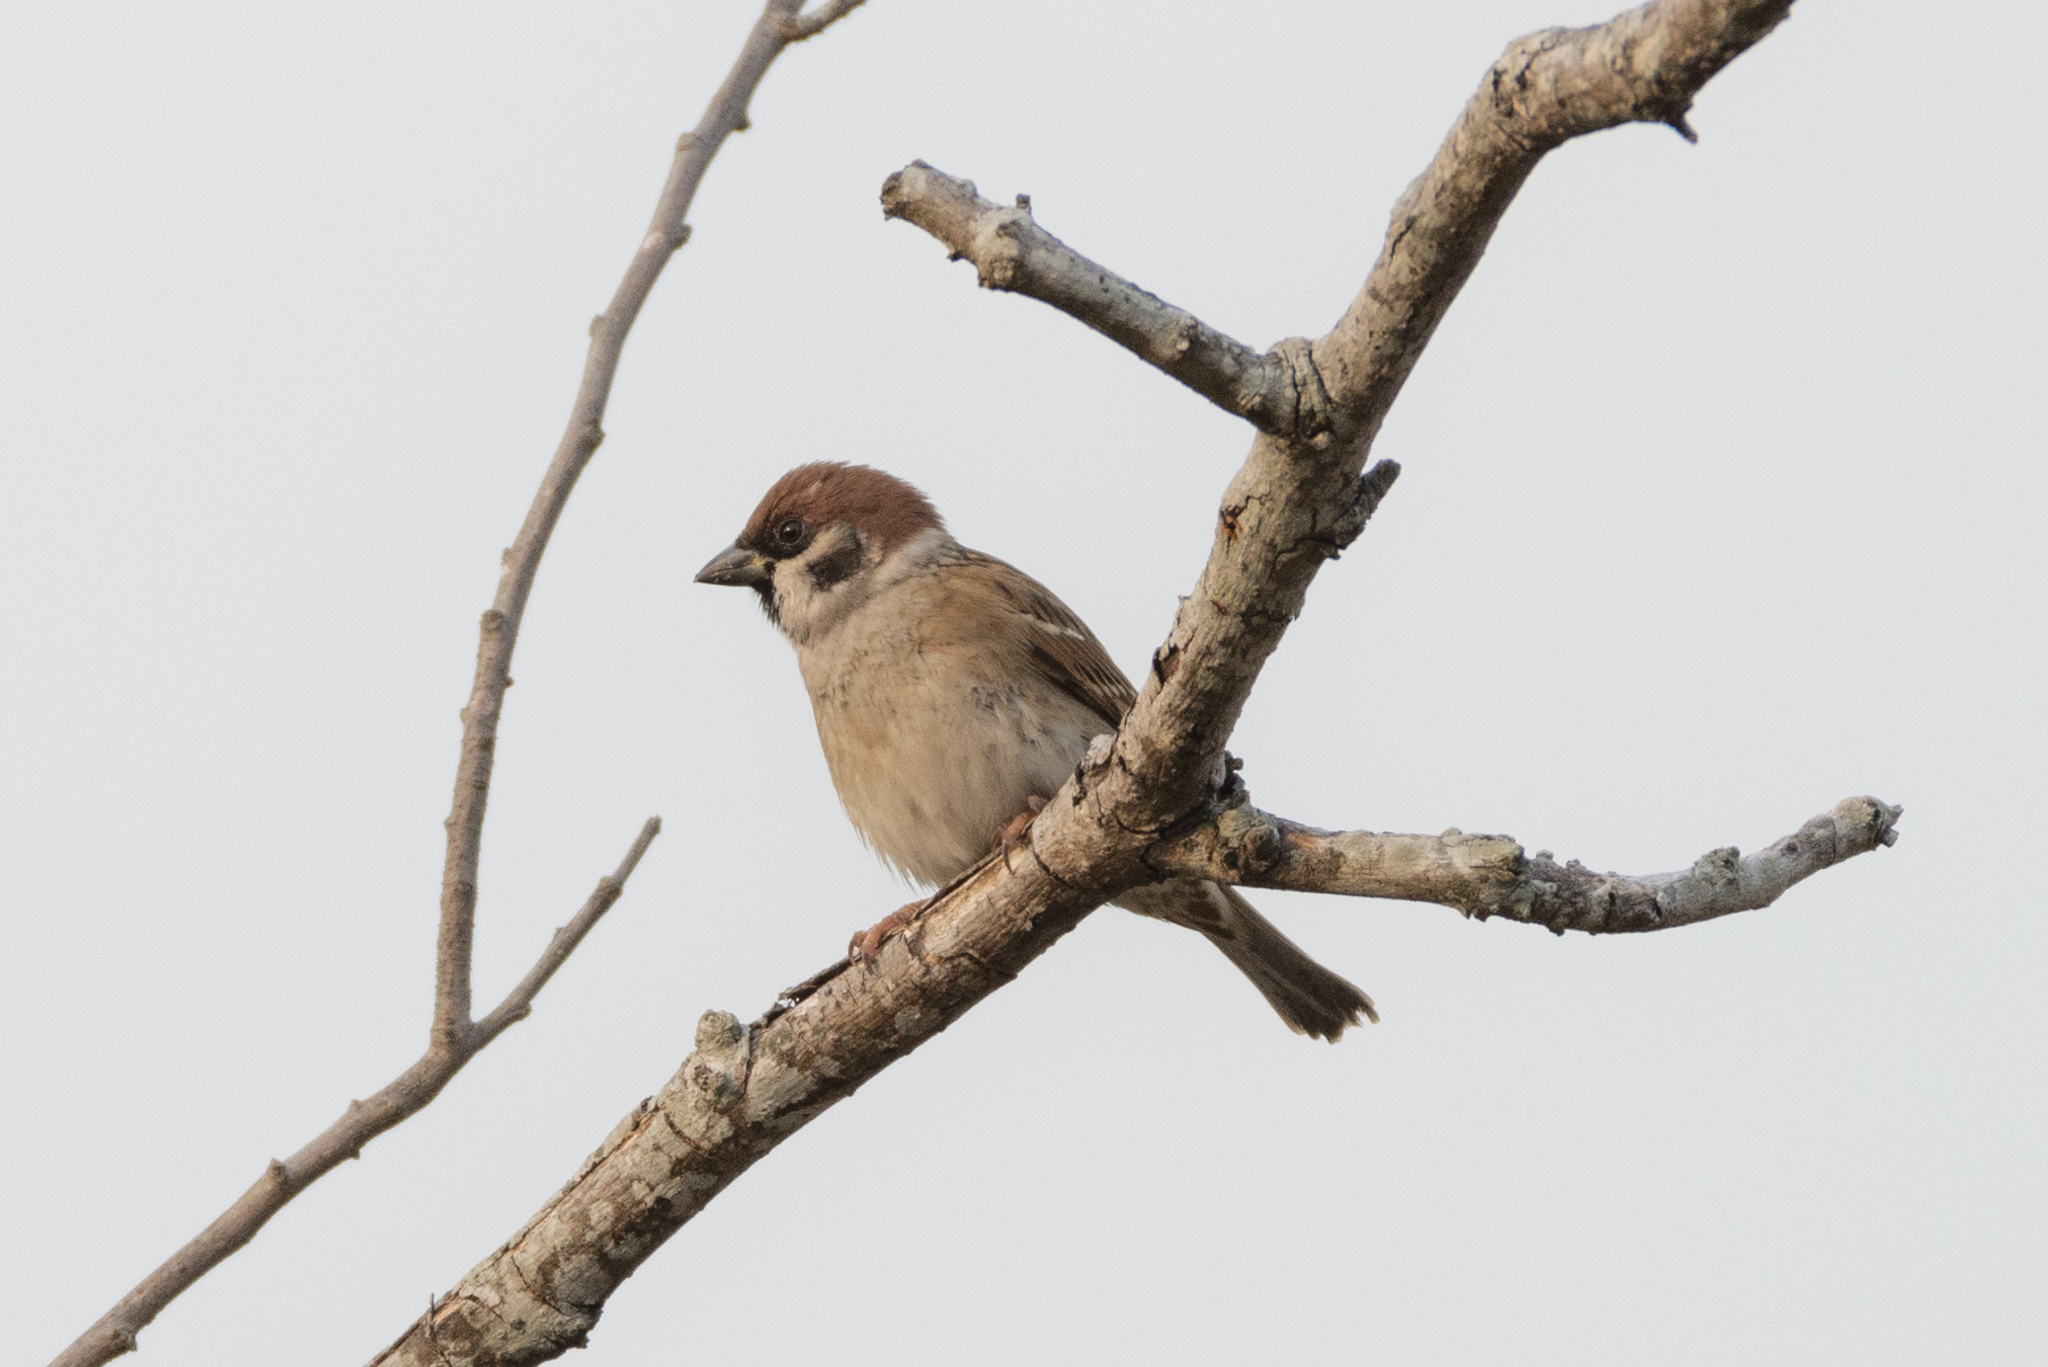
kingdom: Animalia
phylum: Chordata
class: Aves
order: Passeriformes
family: Passeridae
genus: Passer
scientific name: Passer montanus
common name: Eurasian tree sparrow
